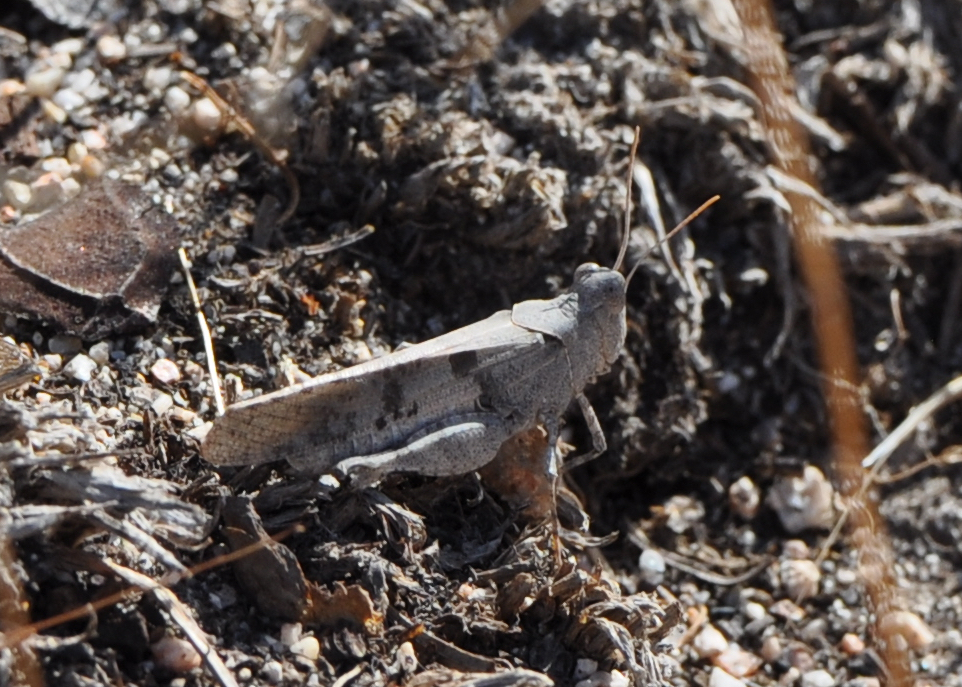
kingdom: Animalia
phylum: Arthropoda
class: Insecta
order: Orthoptera
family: Acrididae
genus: Trimerotropis
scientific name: Trimerotropis thalassica
